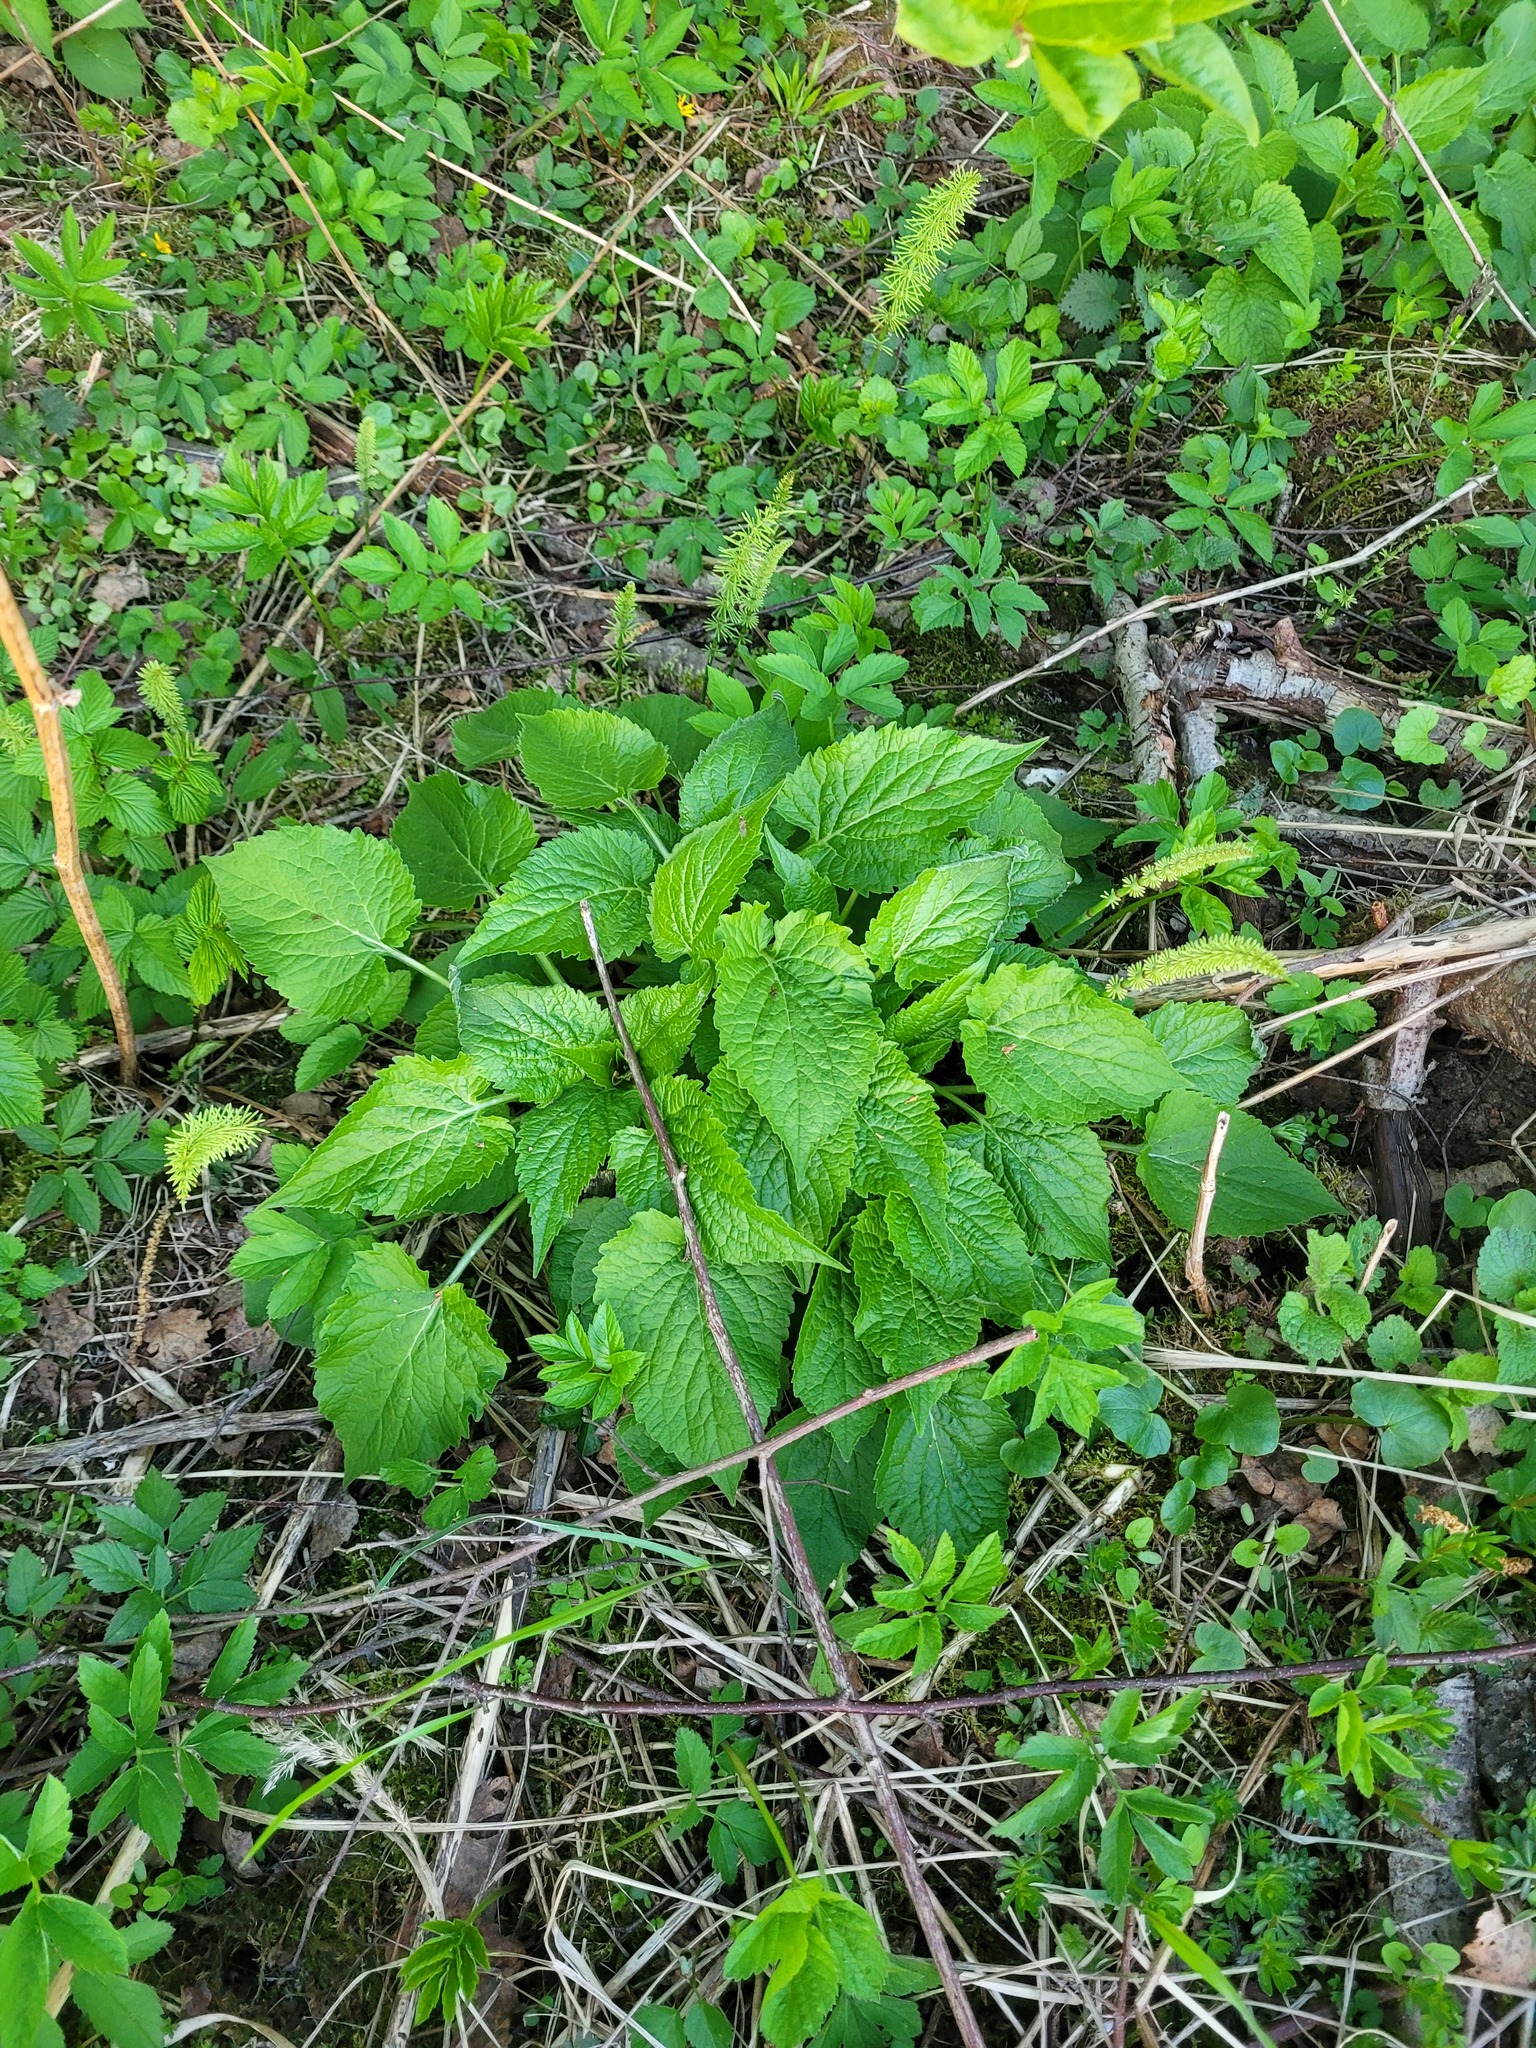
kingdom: Plantae
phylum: Tracheophyta
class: Magnoliopsida
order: Asterales
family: Campanulaceae
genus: Campanula
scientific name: Campanula latifolia
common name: Giant bellflower
